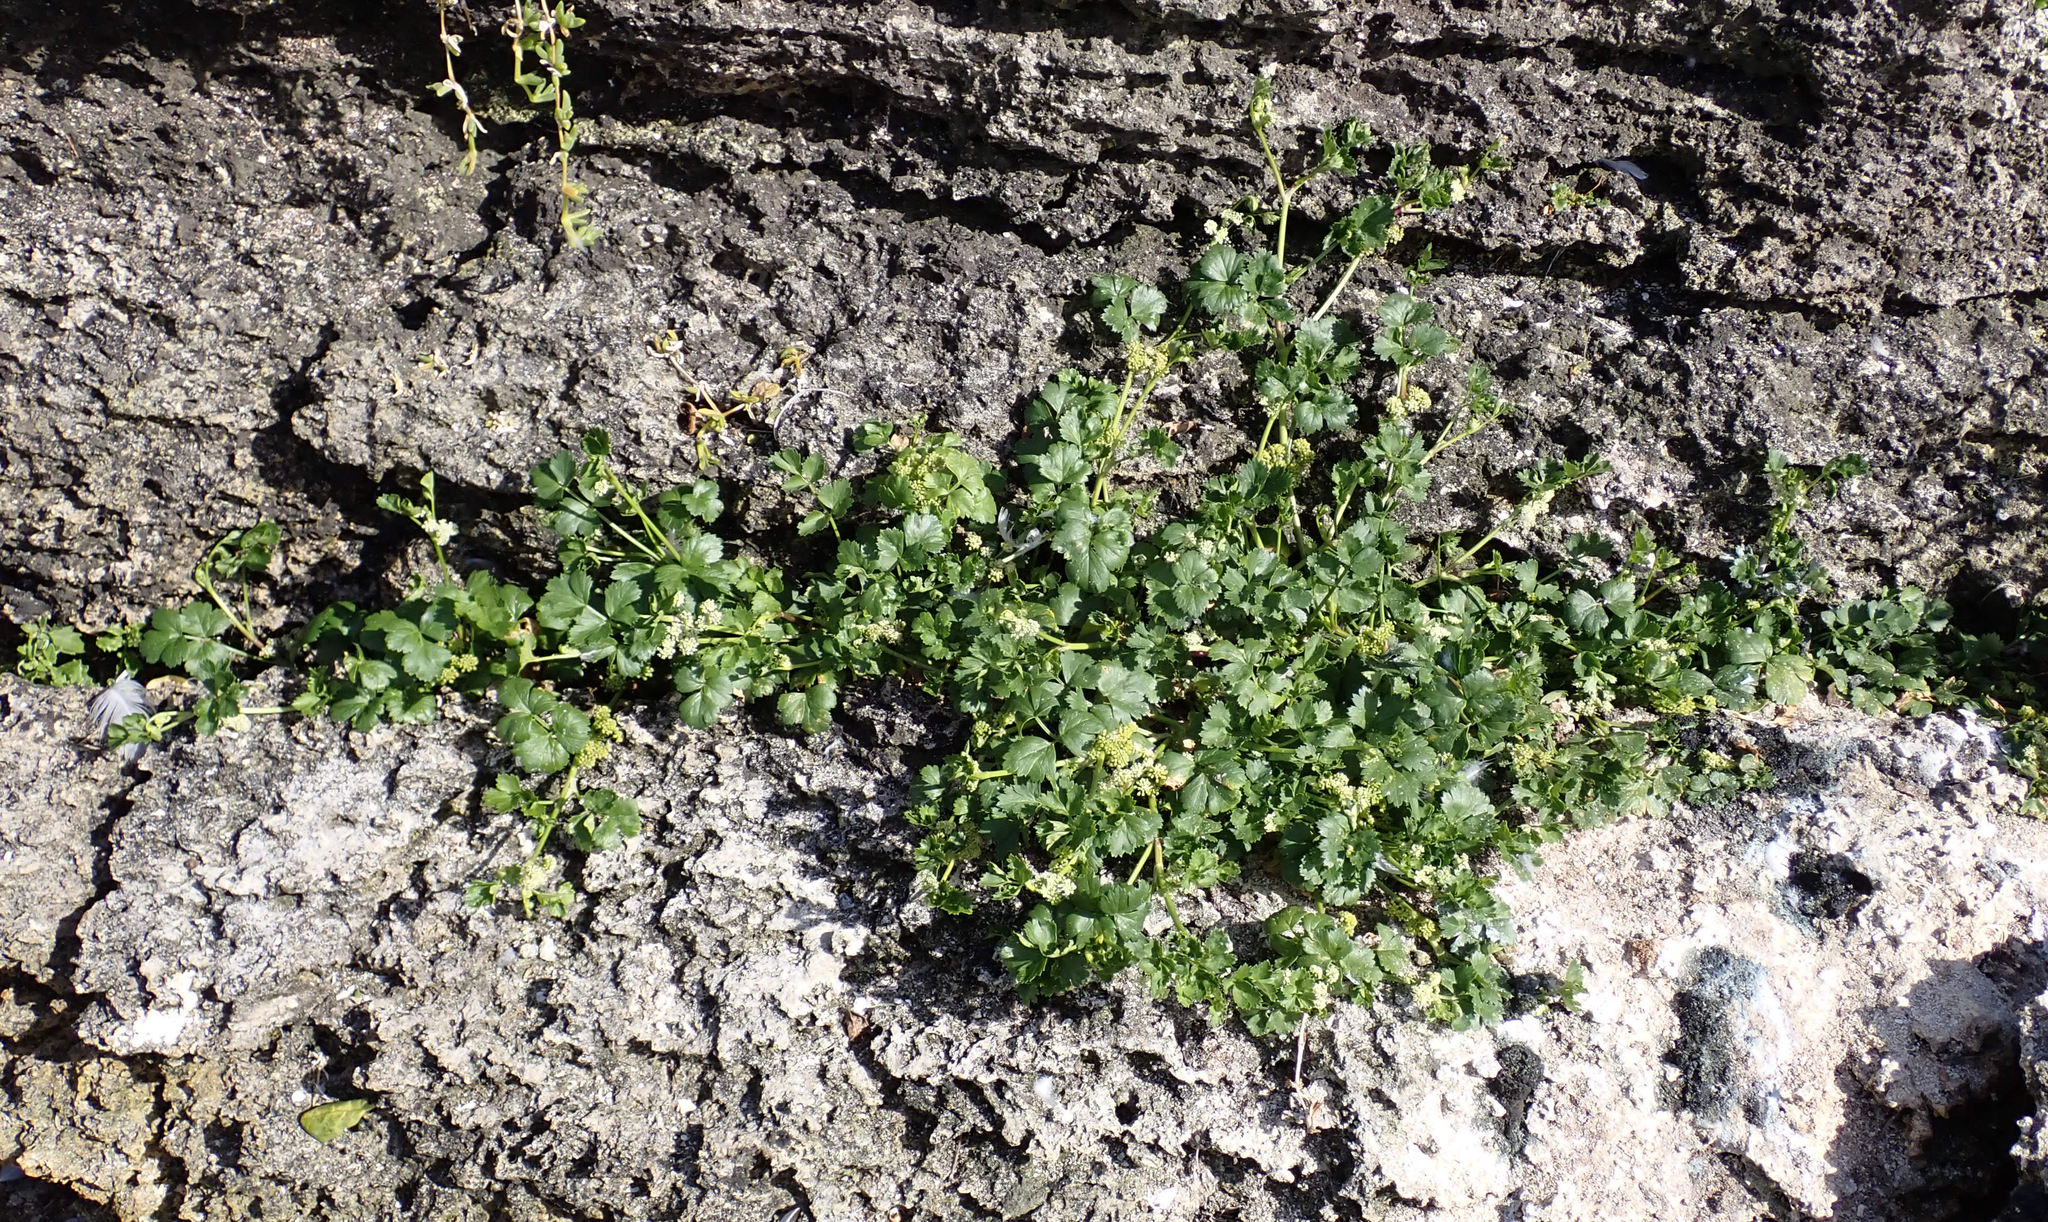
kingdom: Plantae
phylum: Tracheophyta
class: Magnoliopsida
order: Apiales
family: Apiaceae
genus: Apium
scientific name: Apium prostratum
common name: Prostrate marshwort
